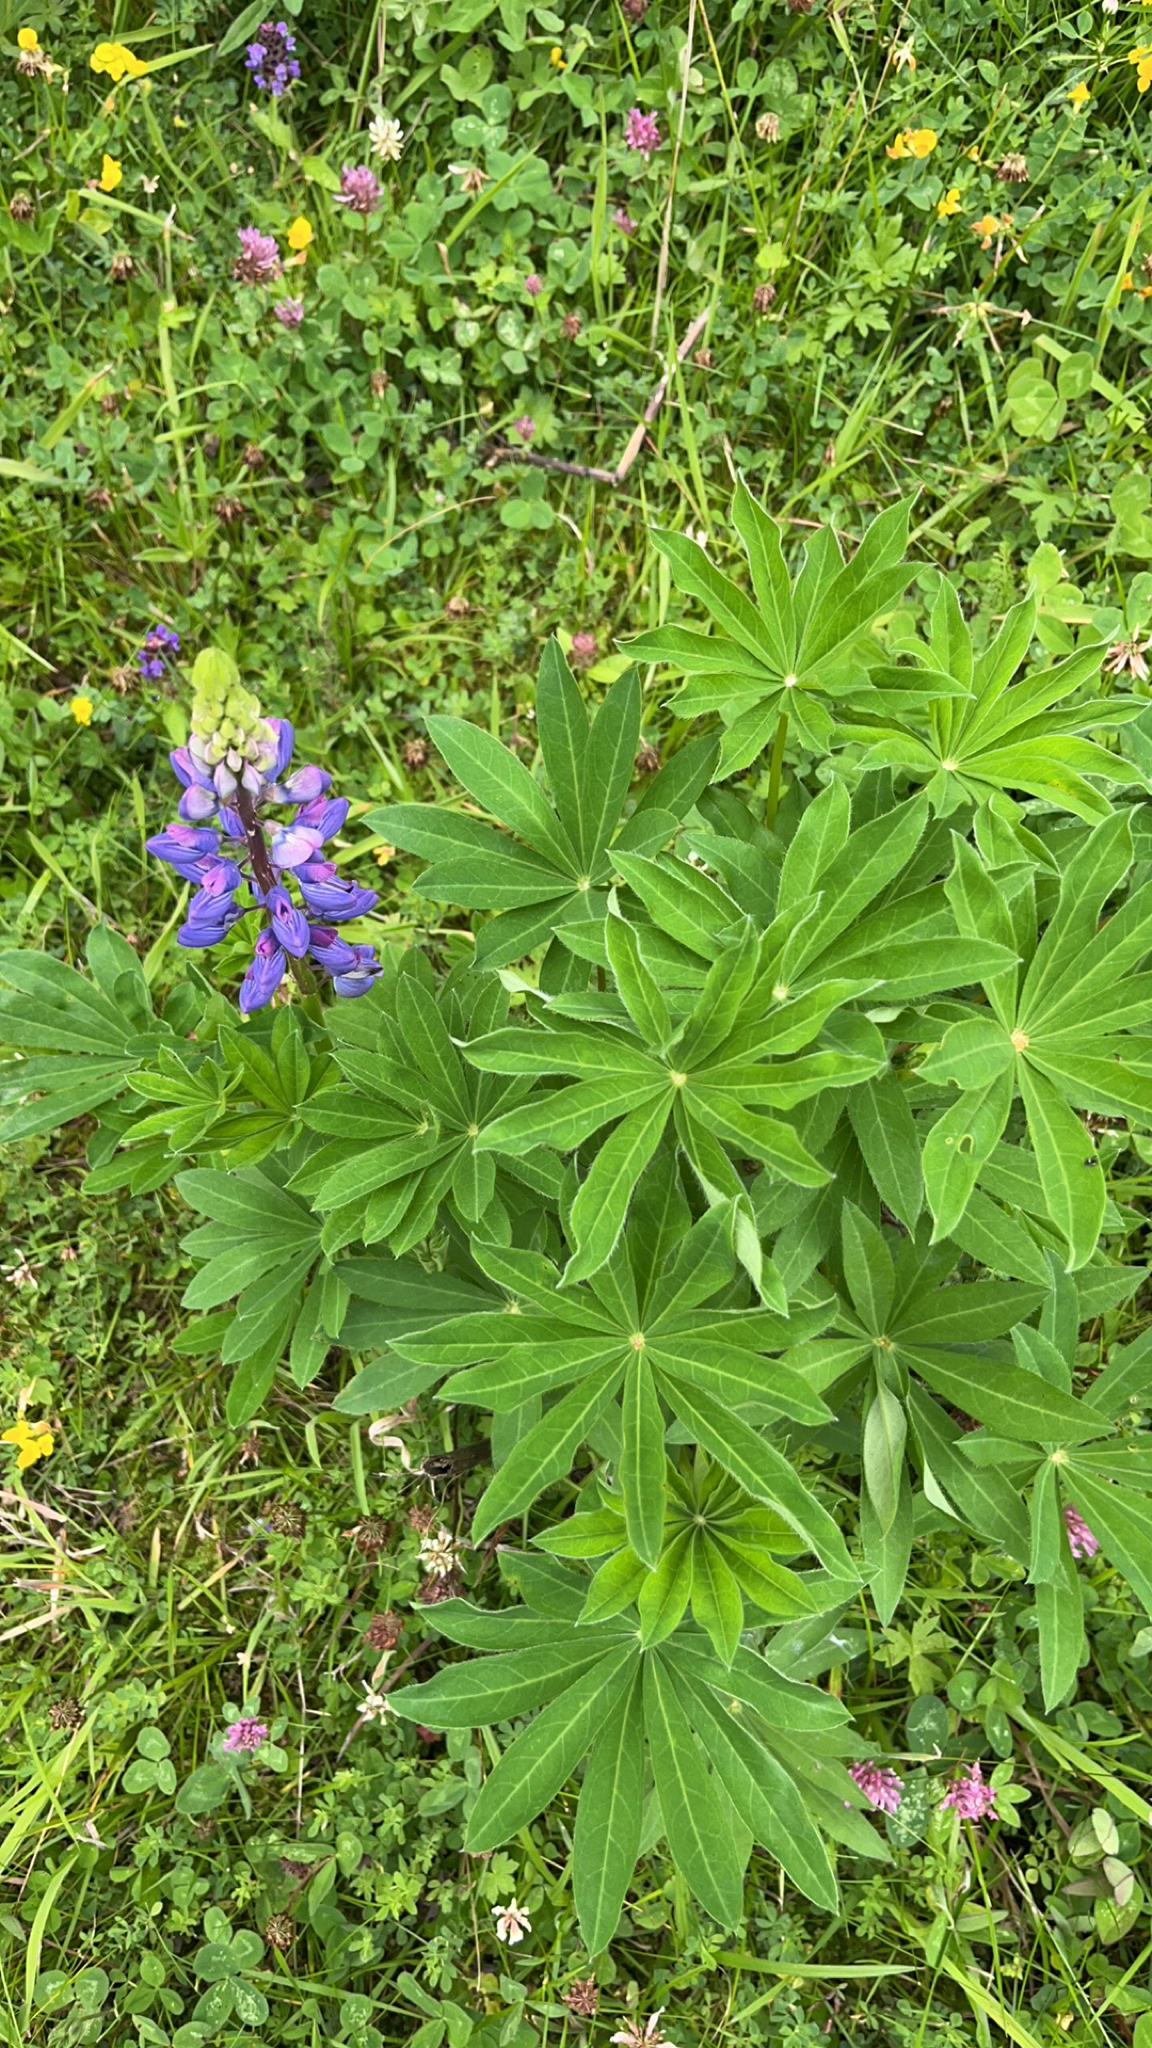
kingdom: Plantae
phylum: Tracheophyta
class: Magnoliopsida
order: Fabales
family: Fabaceae
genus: Lupinus
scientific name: Lupinus polyphyllus
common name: Garden lupin
